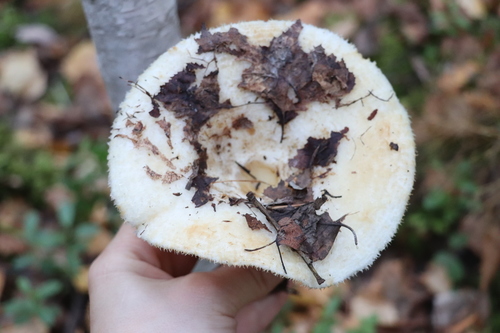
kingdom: Fungi
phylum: Basidiomycota
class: Agaricomycetes
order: Russulales
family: Russulaceae
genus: Lactarius
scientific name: Lactarius aquizonatus
